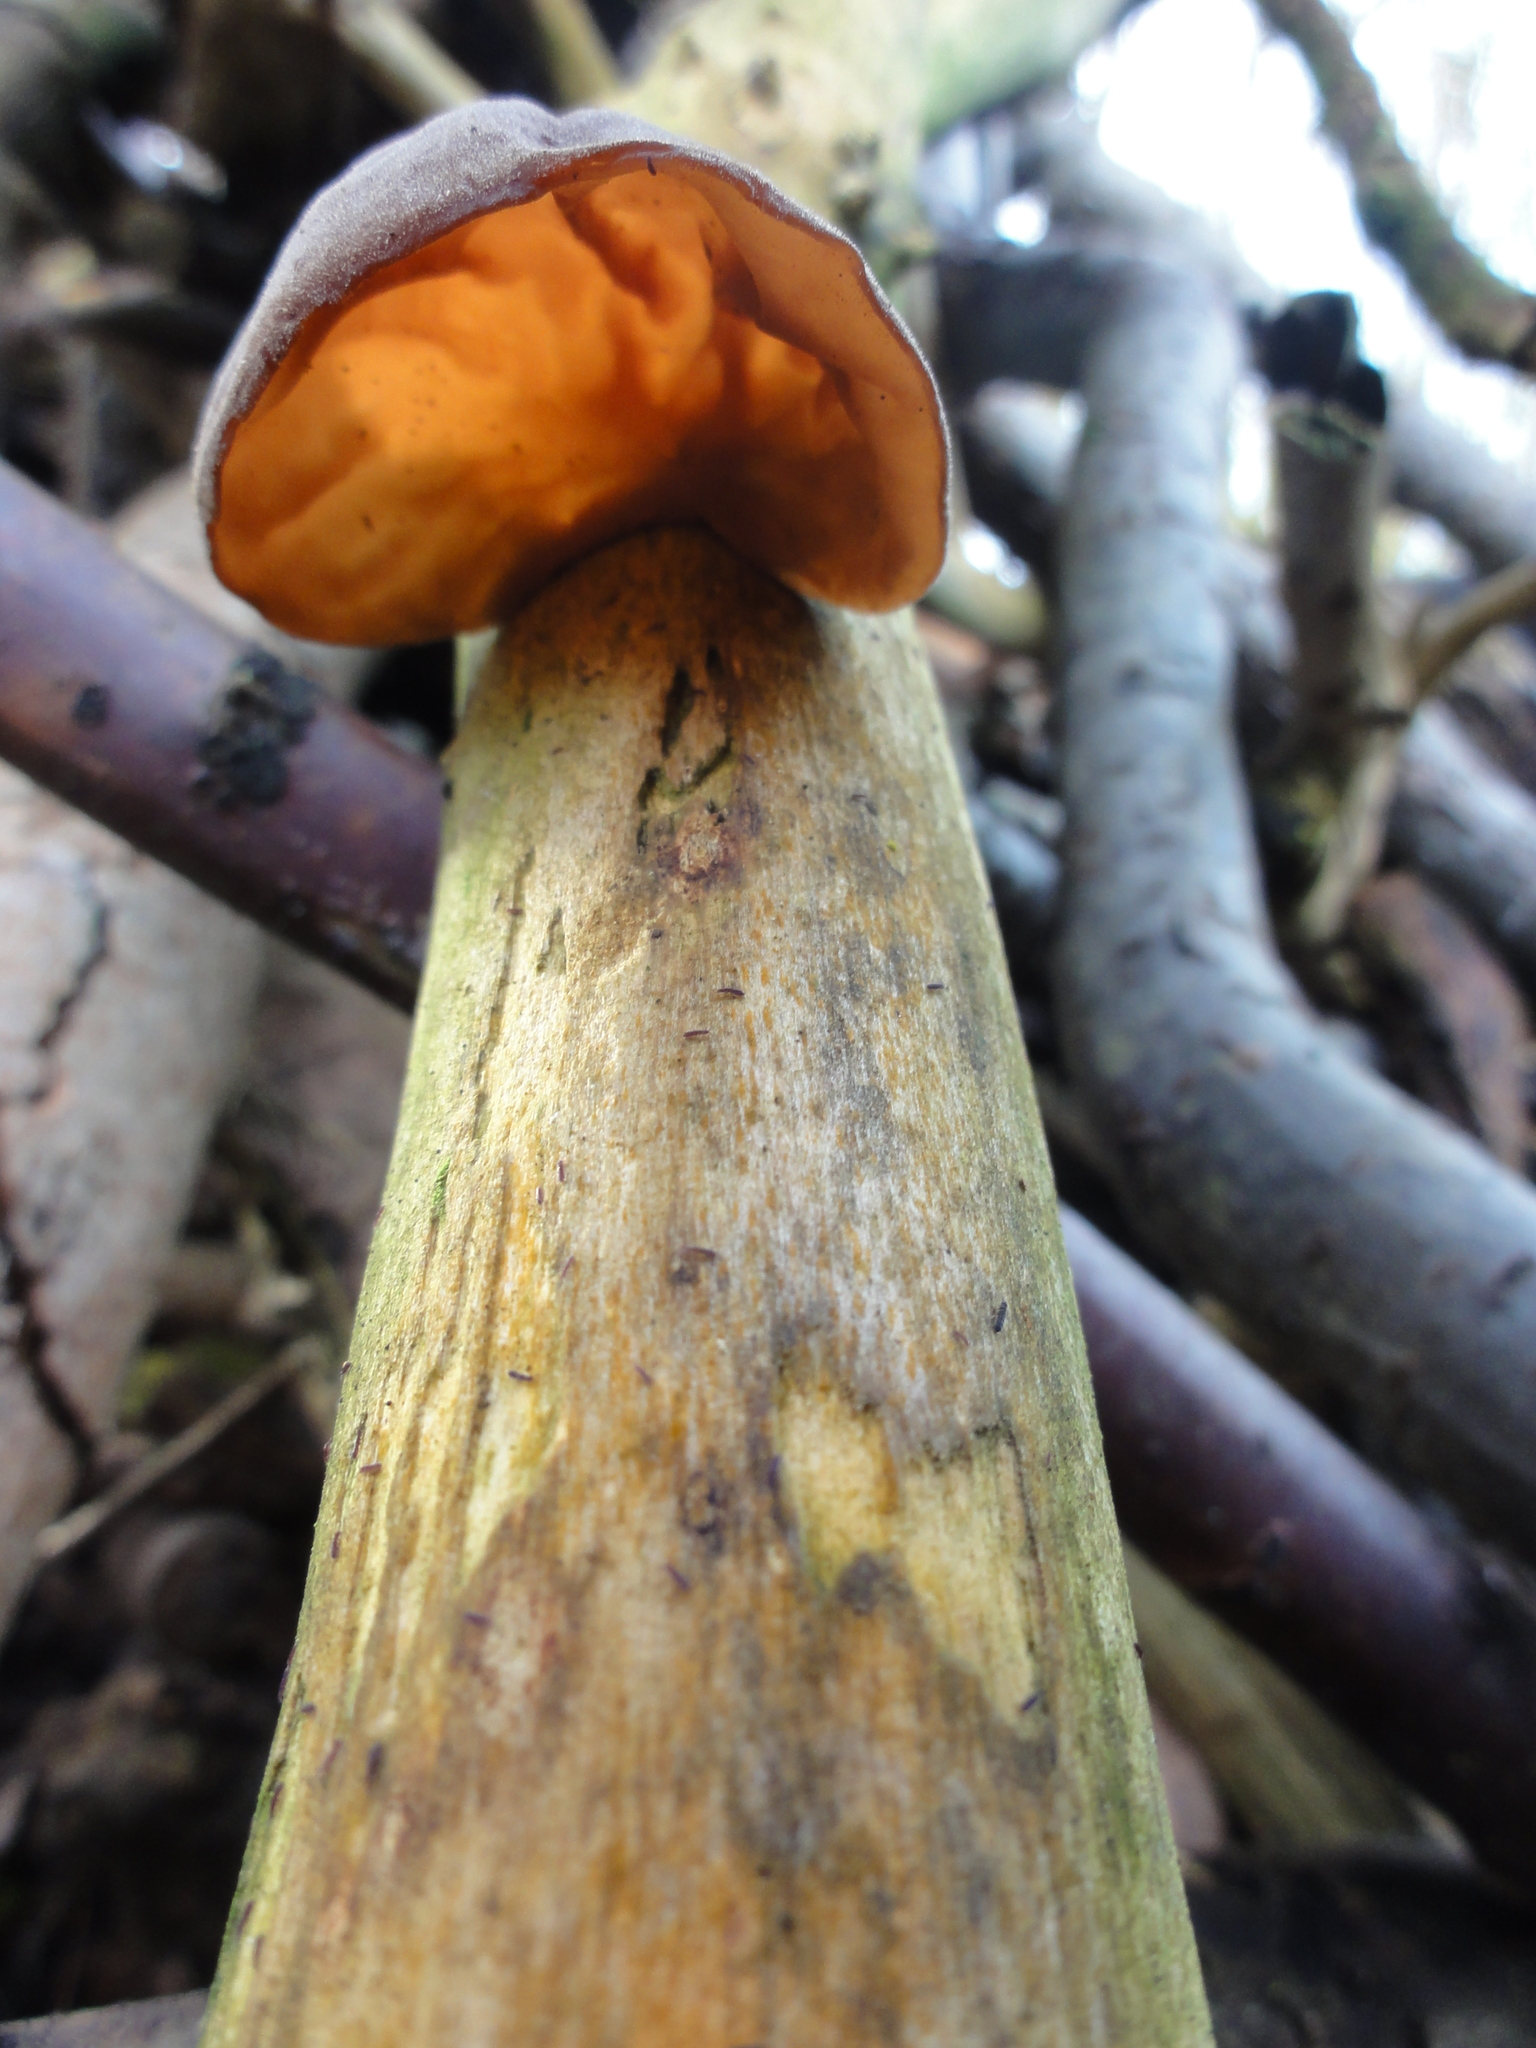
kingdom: Fungi
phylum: Basidiomycota
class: Agaricomycetes
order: Auriculariales
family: Auriculariaceae
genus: Auricularia
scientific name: Auricularia auricula-judae
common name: Jelly ear
